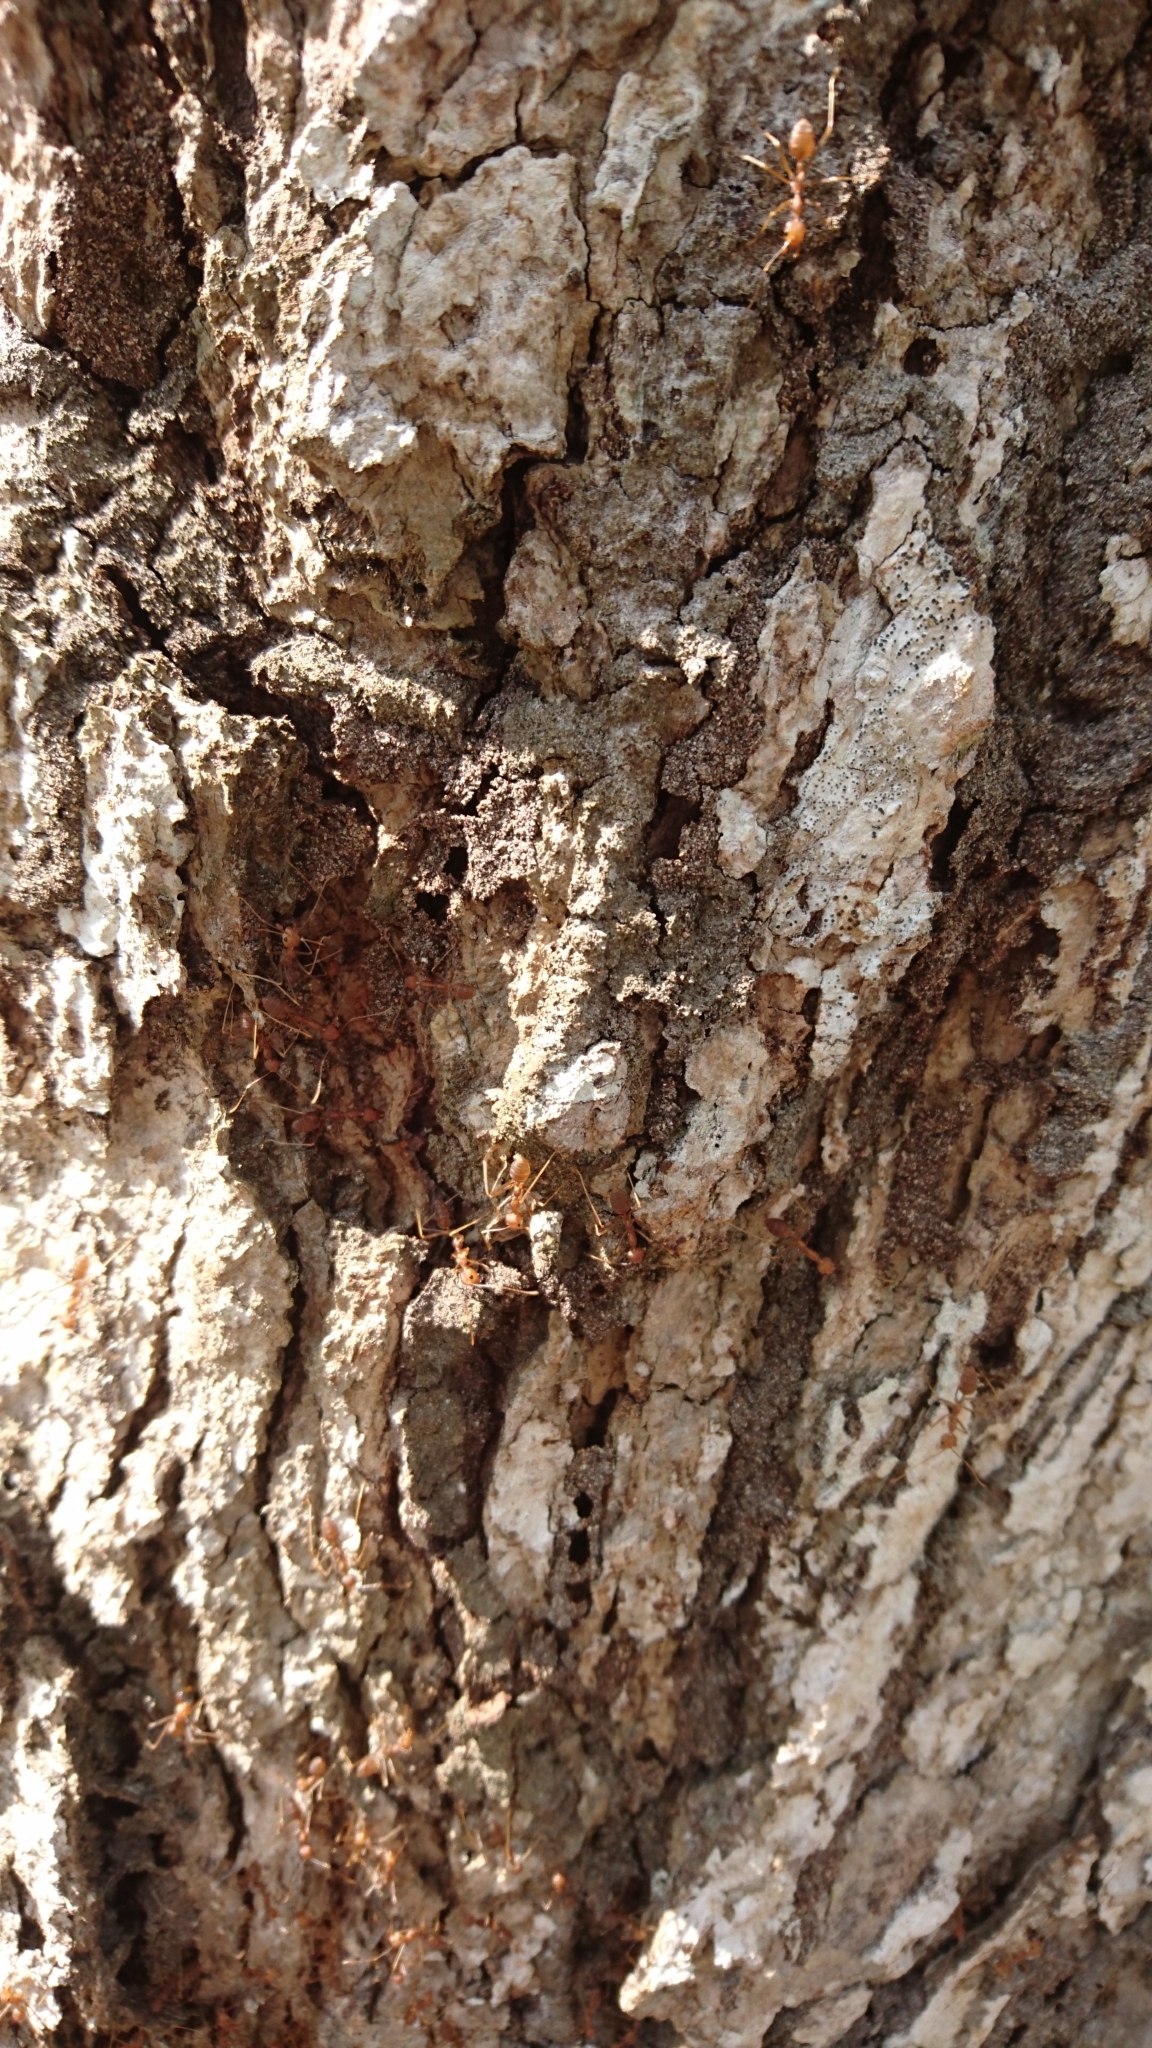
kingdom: Animalia
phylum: Arthropoda
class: Insecta
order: Hymenoptera
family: Formicidae
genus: Oecophylla
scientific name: Oecophylla smaragdina
